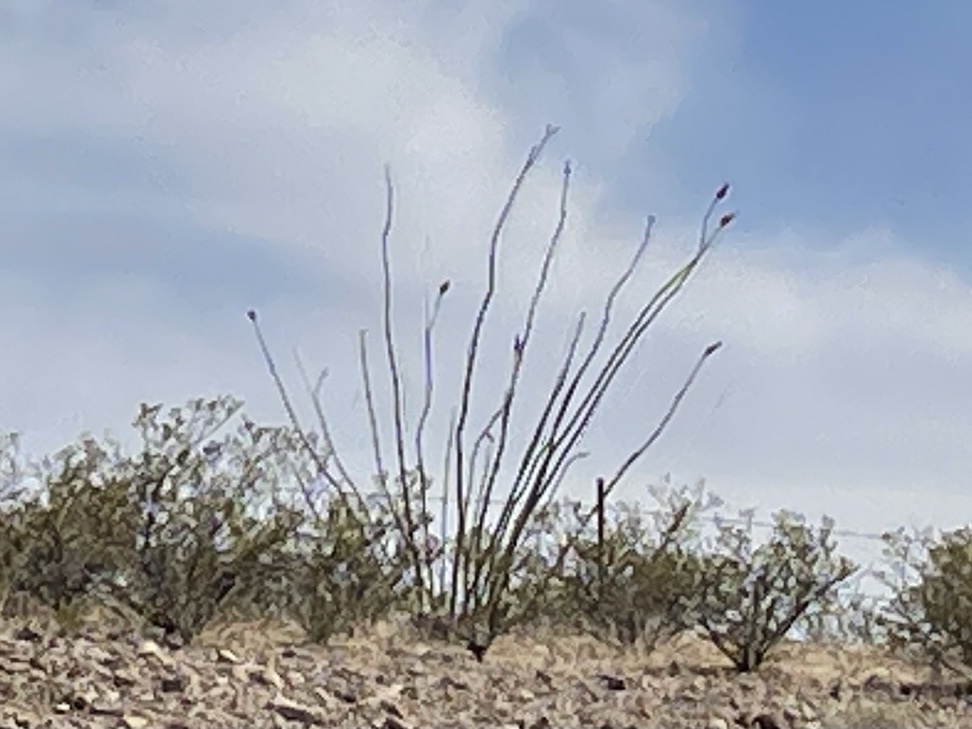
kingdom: Plantae
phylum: Tracheophyta
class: Magnoliopsida
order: Ericales
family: Fouquieriaceae
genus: Fouquieria
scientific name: Fouquieria splendens
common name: Vine-cactus
